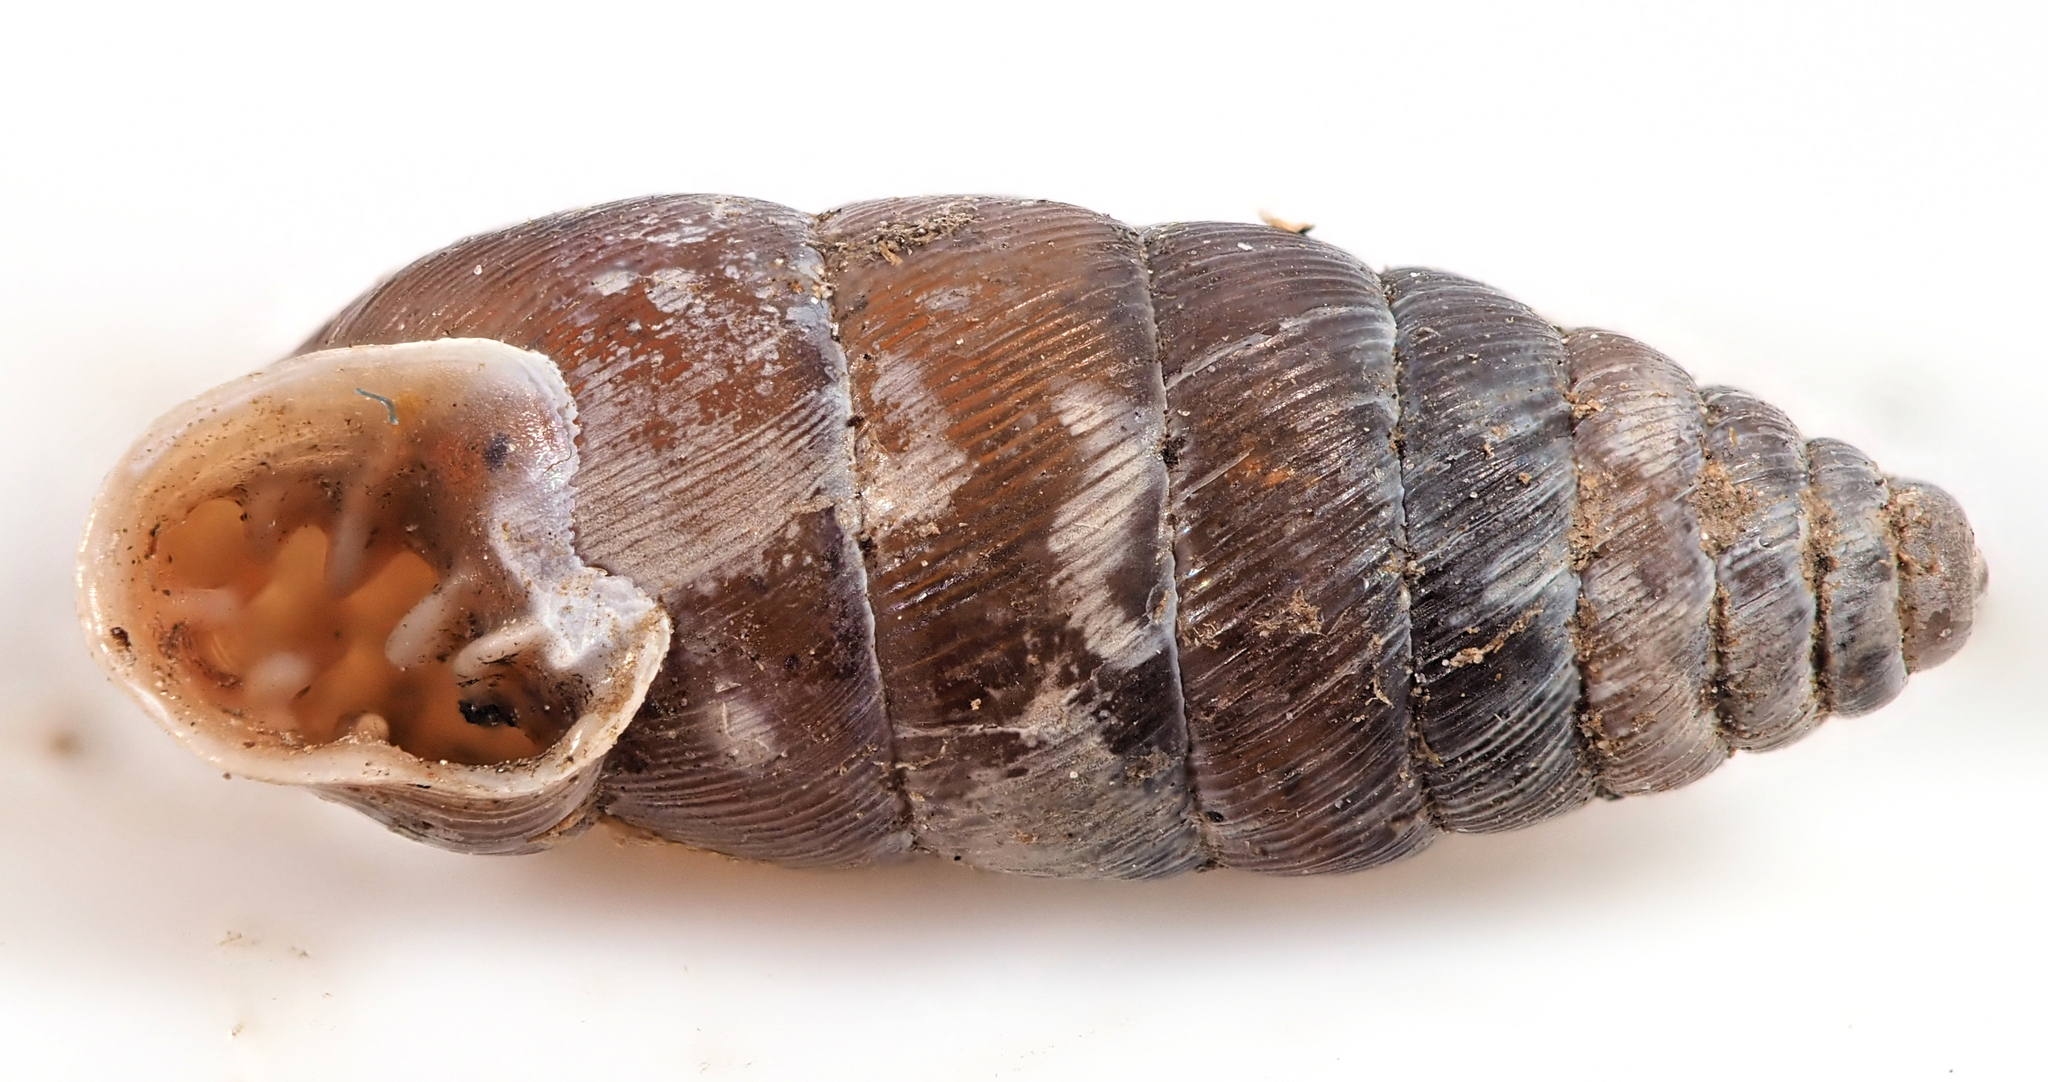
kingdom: Animalia
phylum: Mollusca
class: Gastropoda
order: Stylommatophora
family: Chondrinidae
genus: Abida
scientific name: Abida secale
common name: Large chrysalis snail
